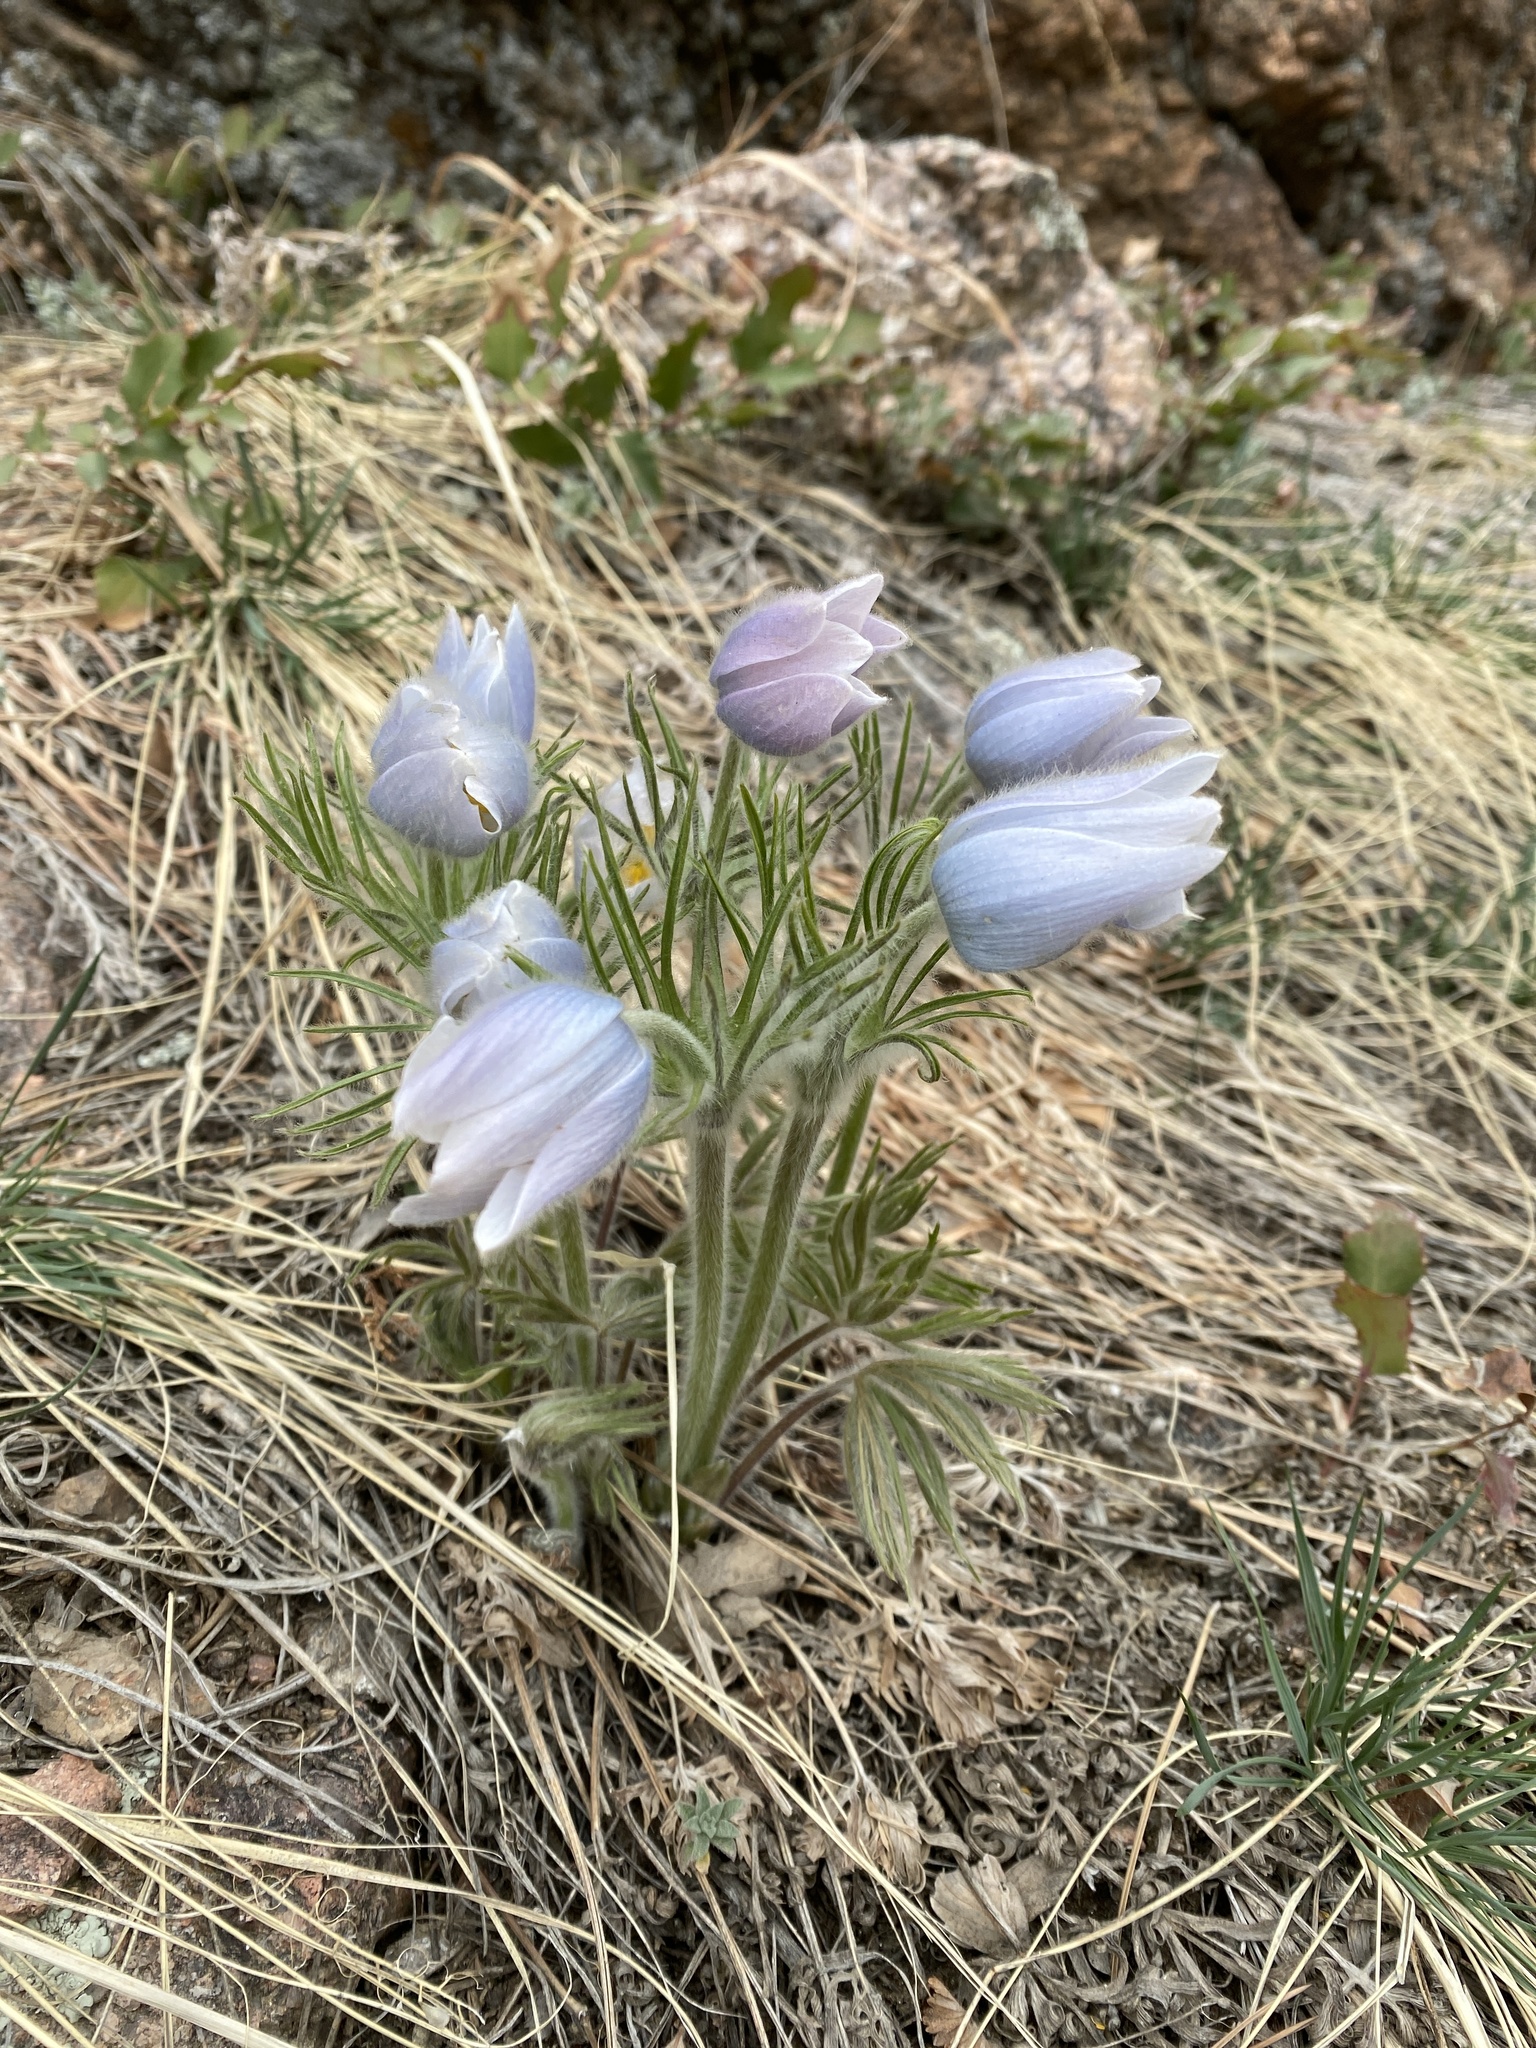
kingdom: Plantae
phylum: Tracheophyta
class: Magnoliopsida
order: Ranunculales
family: Ranunculaceae
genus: Pulsatilla
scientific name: Pulsatilla nuttalliana
